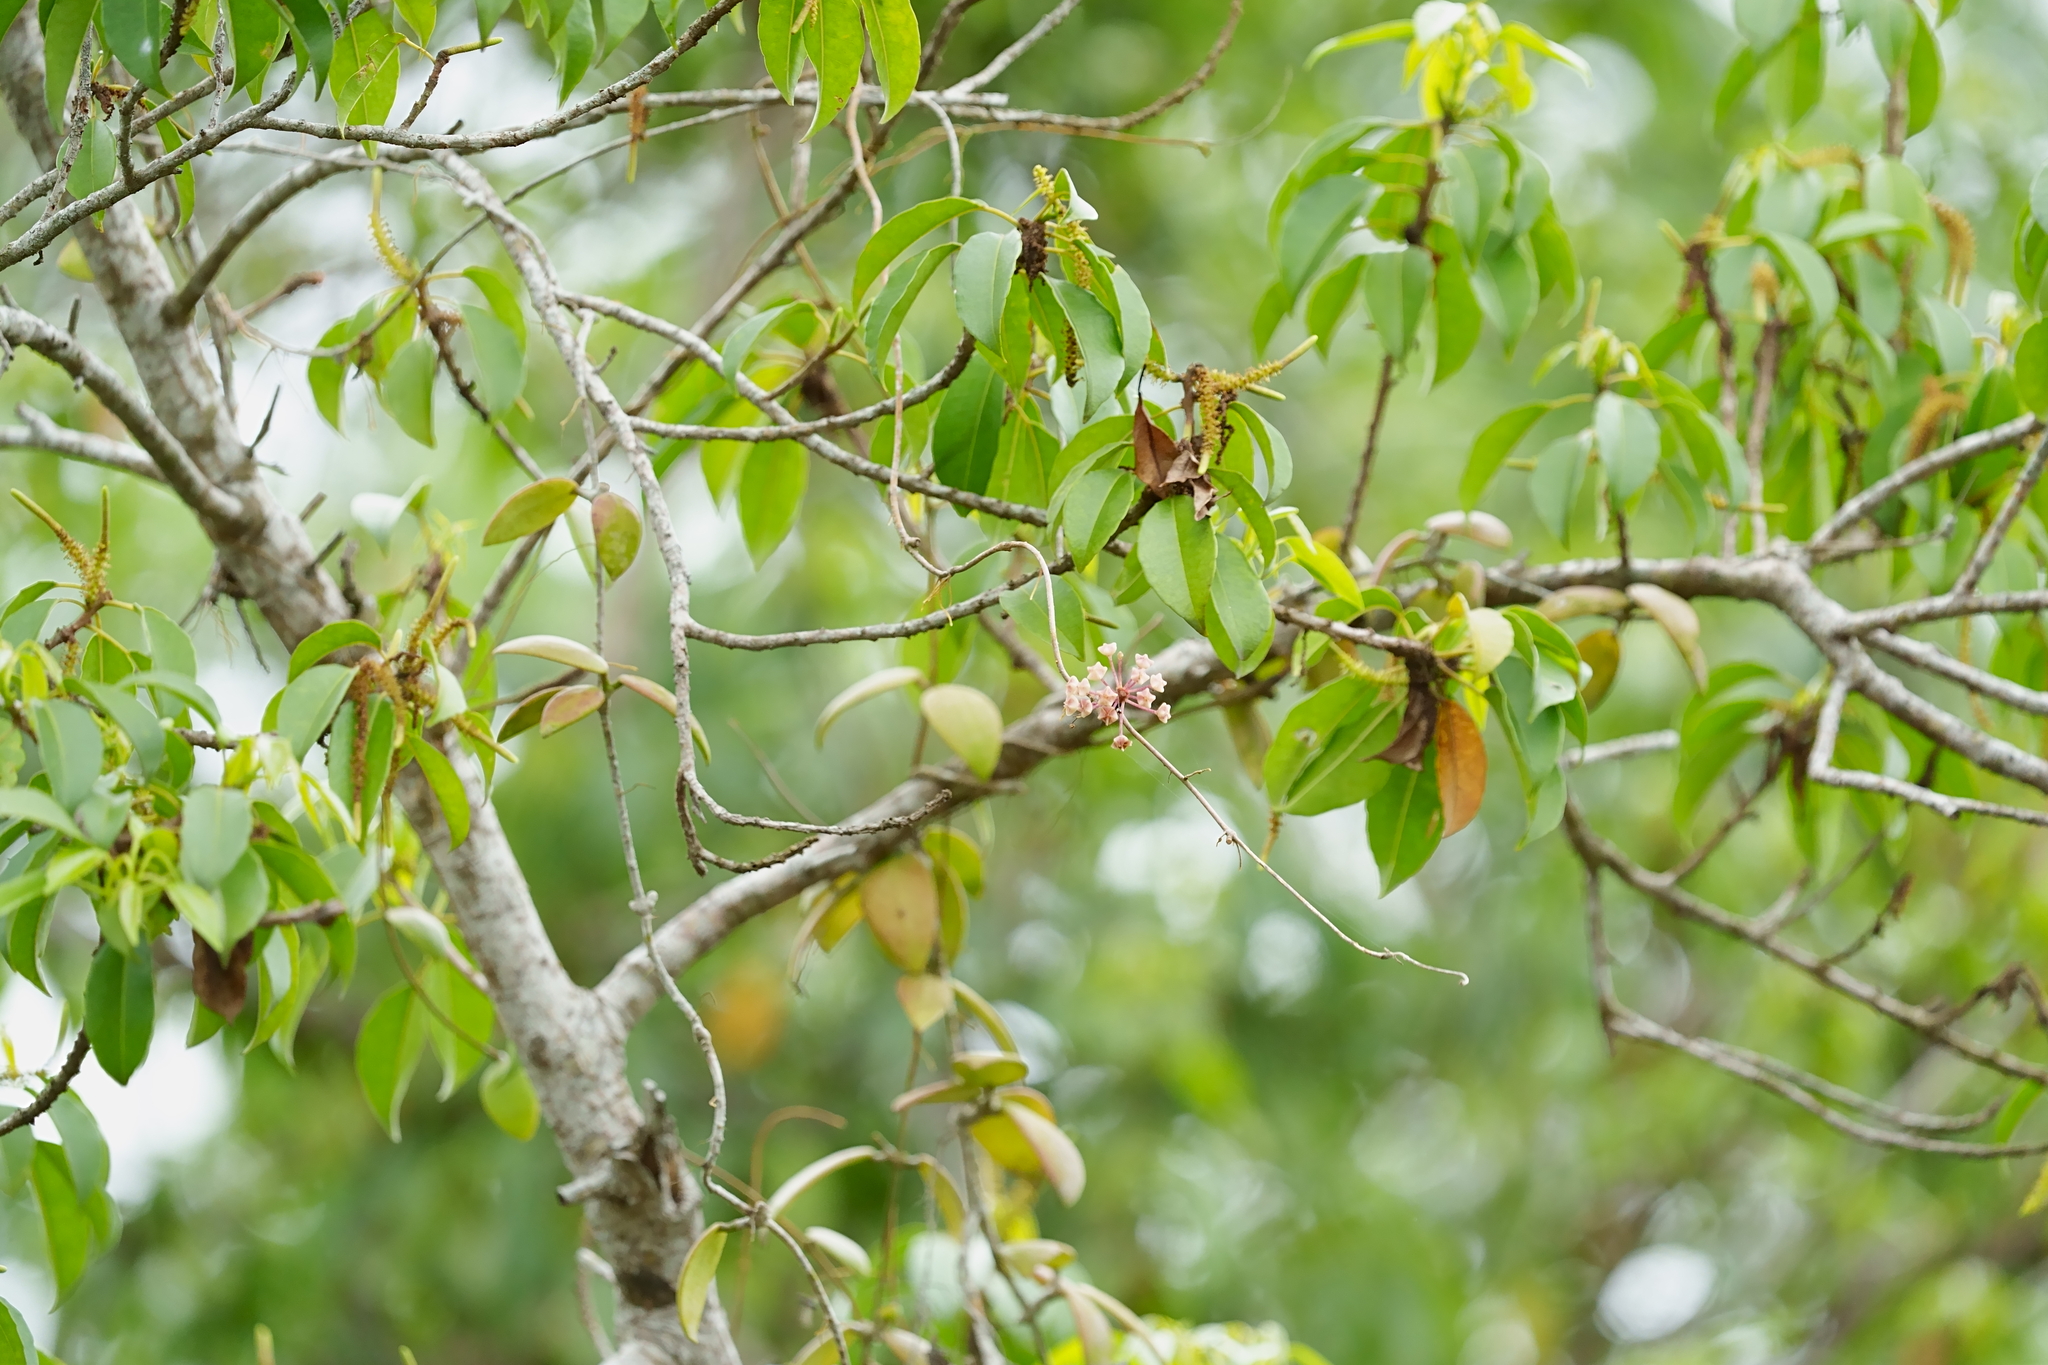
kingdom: Plantae
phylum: Tracheophyta
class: Magnoliopsida
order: Gentianales
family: Apocynaceae
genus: Hoya
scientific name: Hoya verticillata
